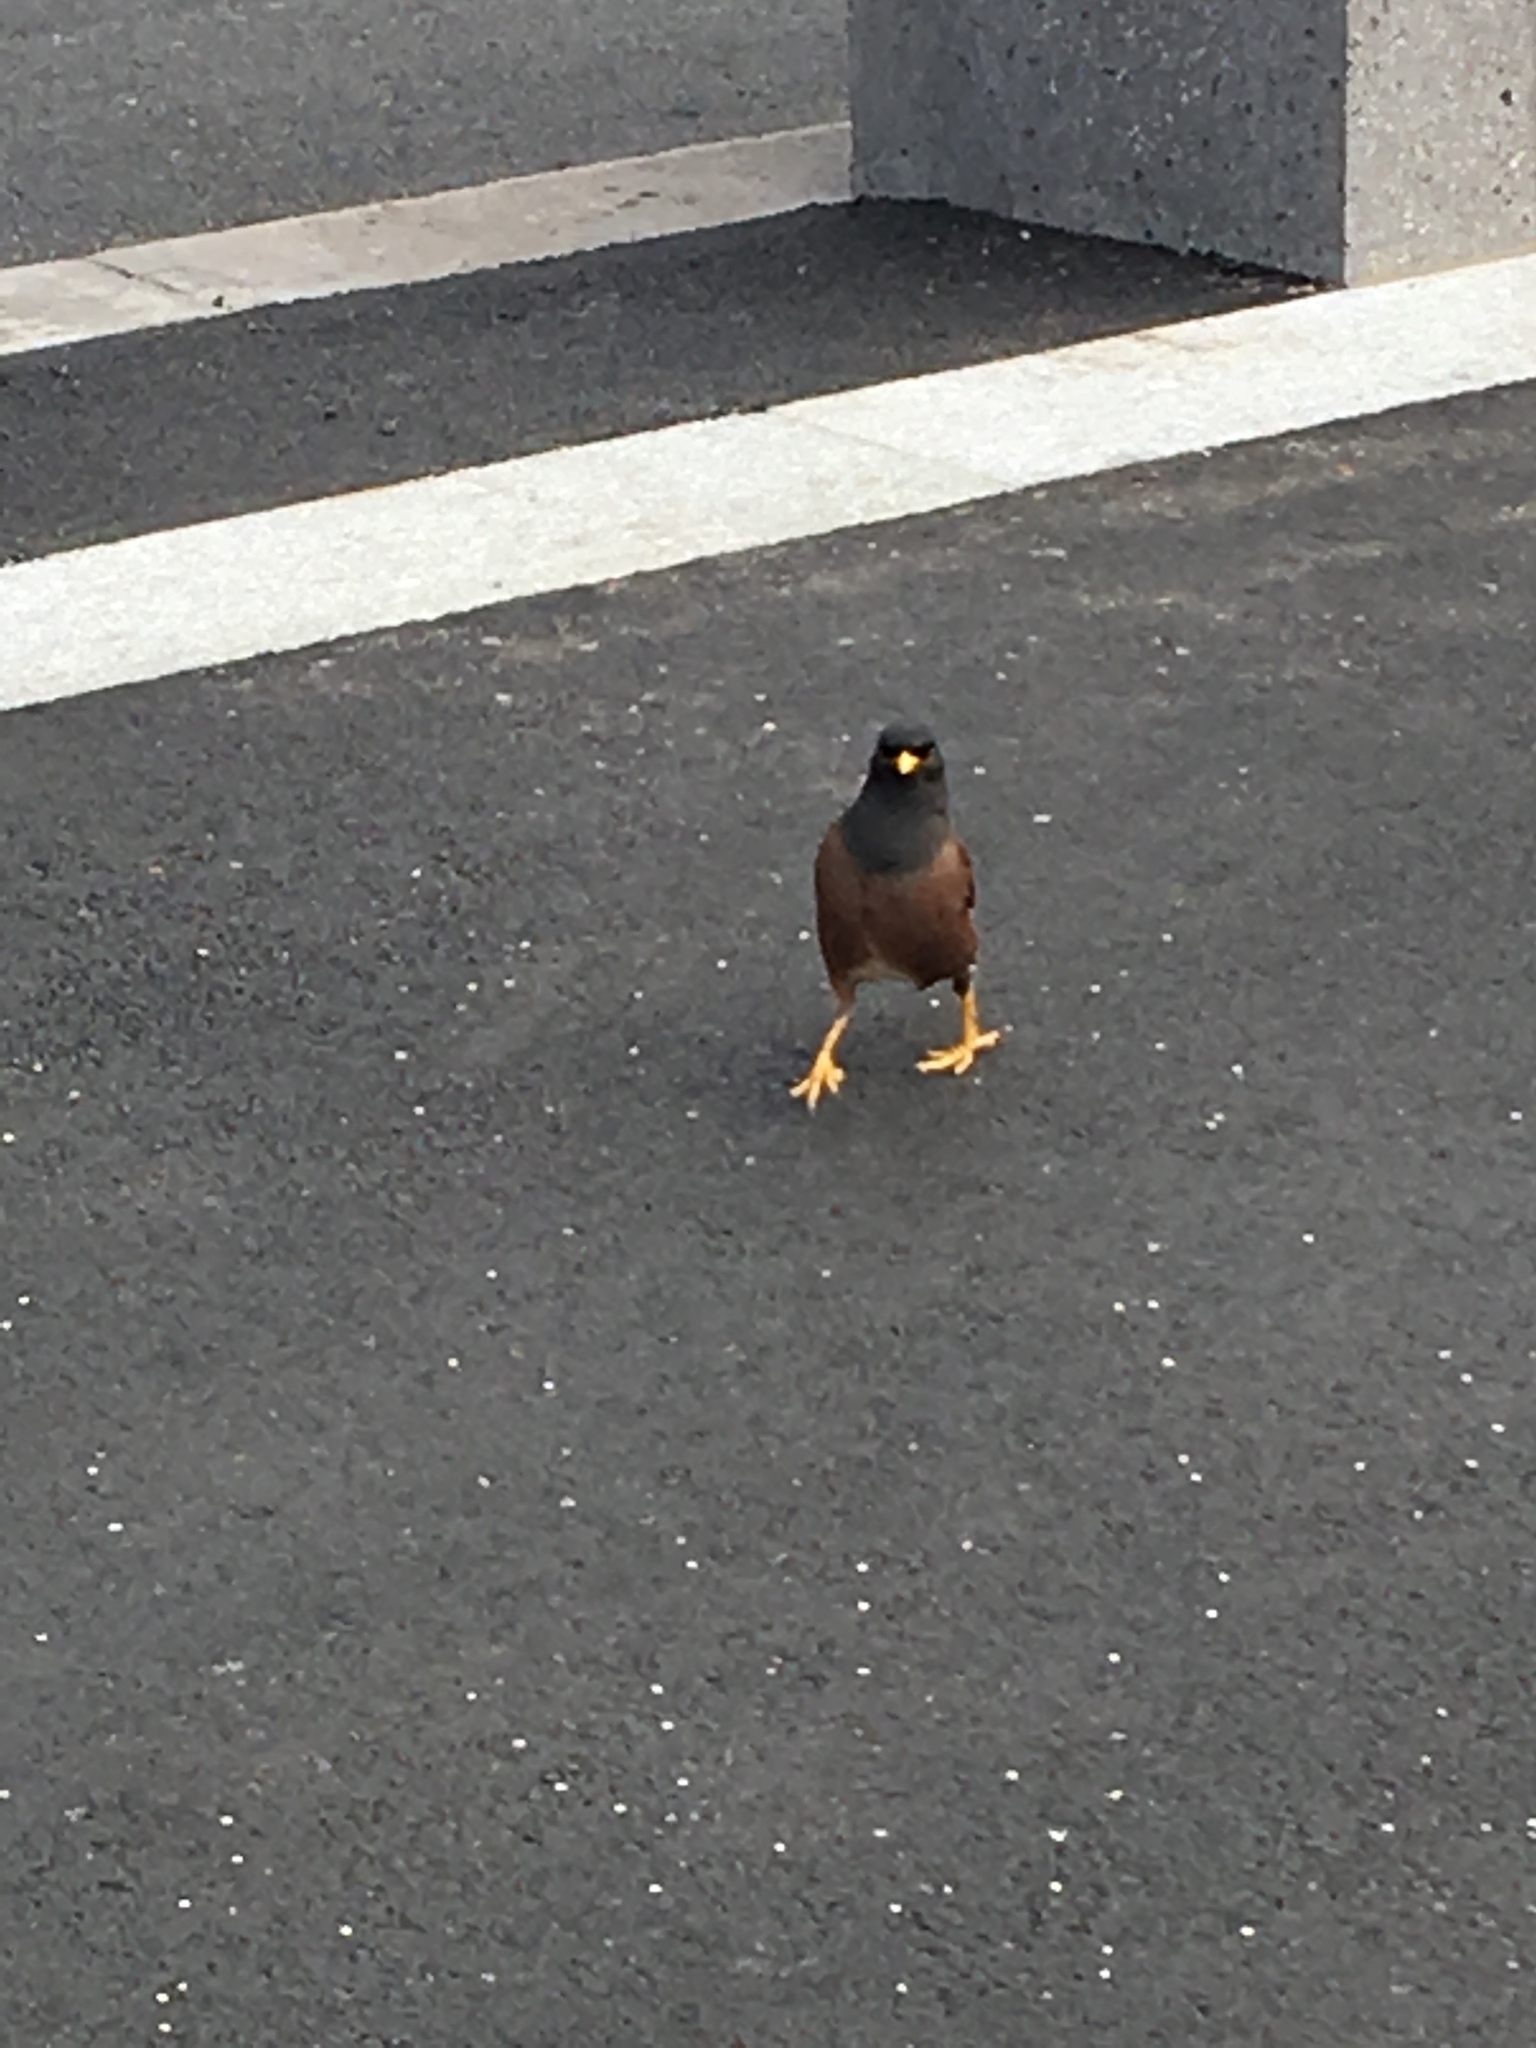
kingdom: Animalia
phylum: Chordata
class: Aves
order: Passeriformes
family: Sturnidae
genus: Acridotheres
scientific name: Acridotheres tristis
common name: Common myna
